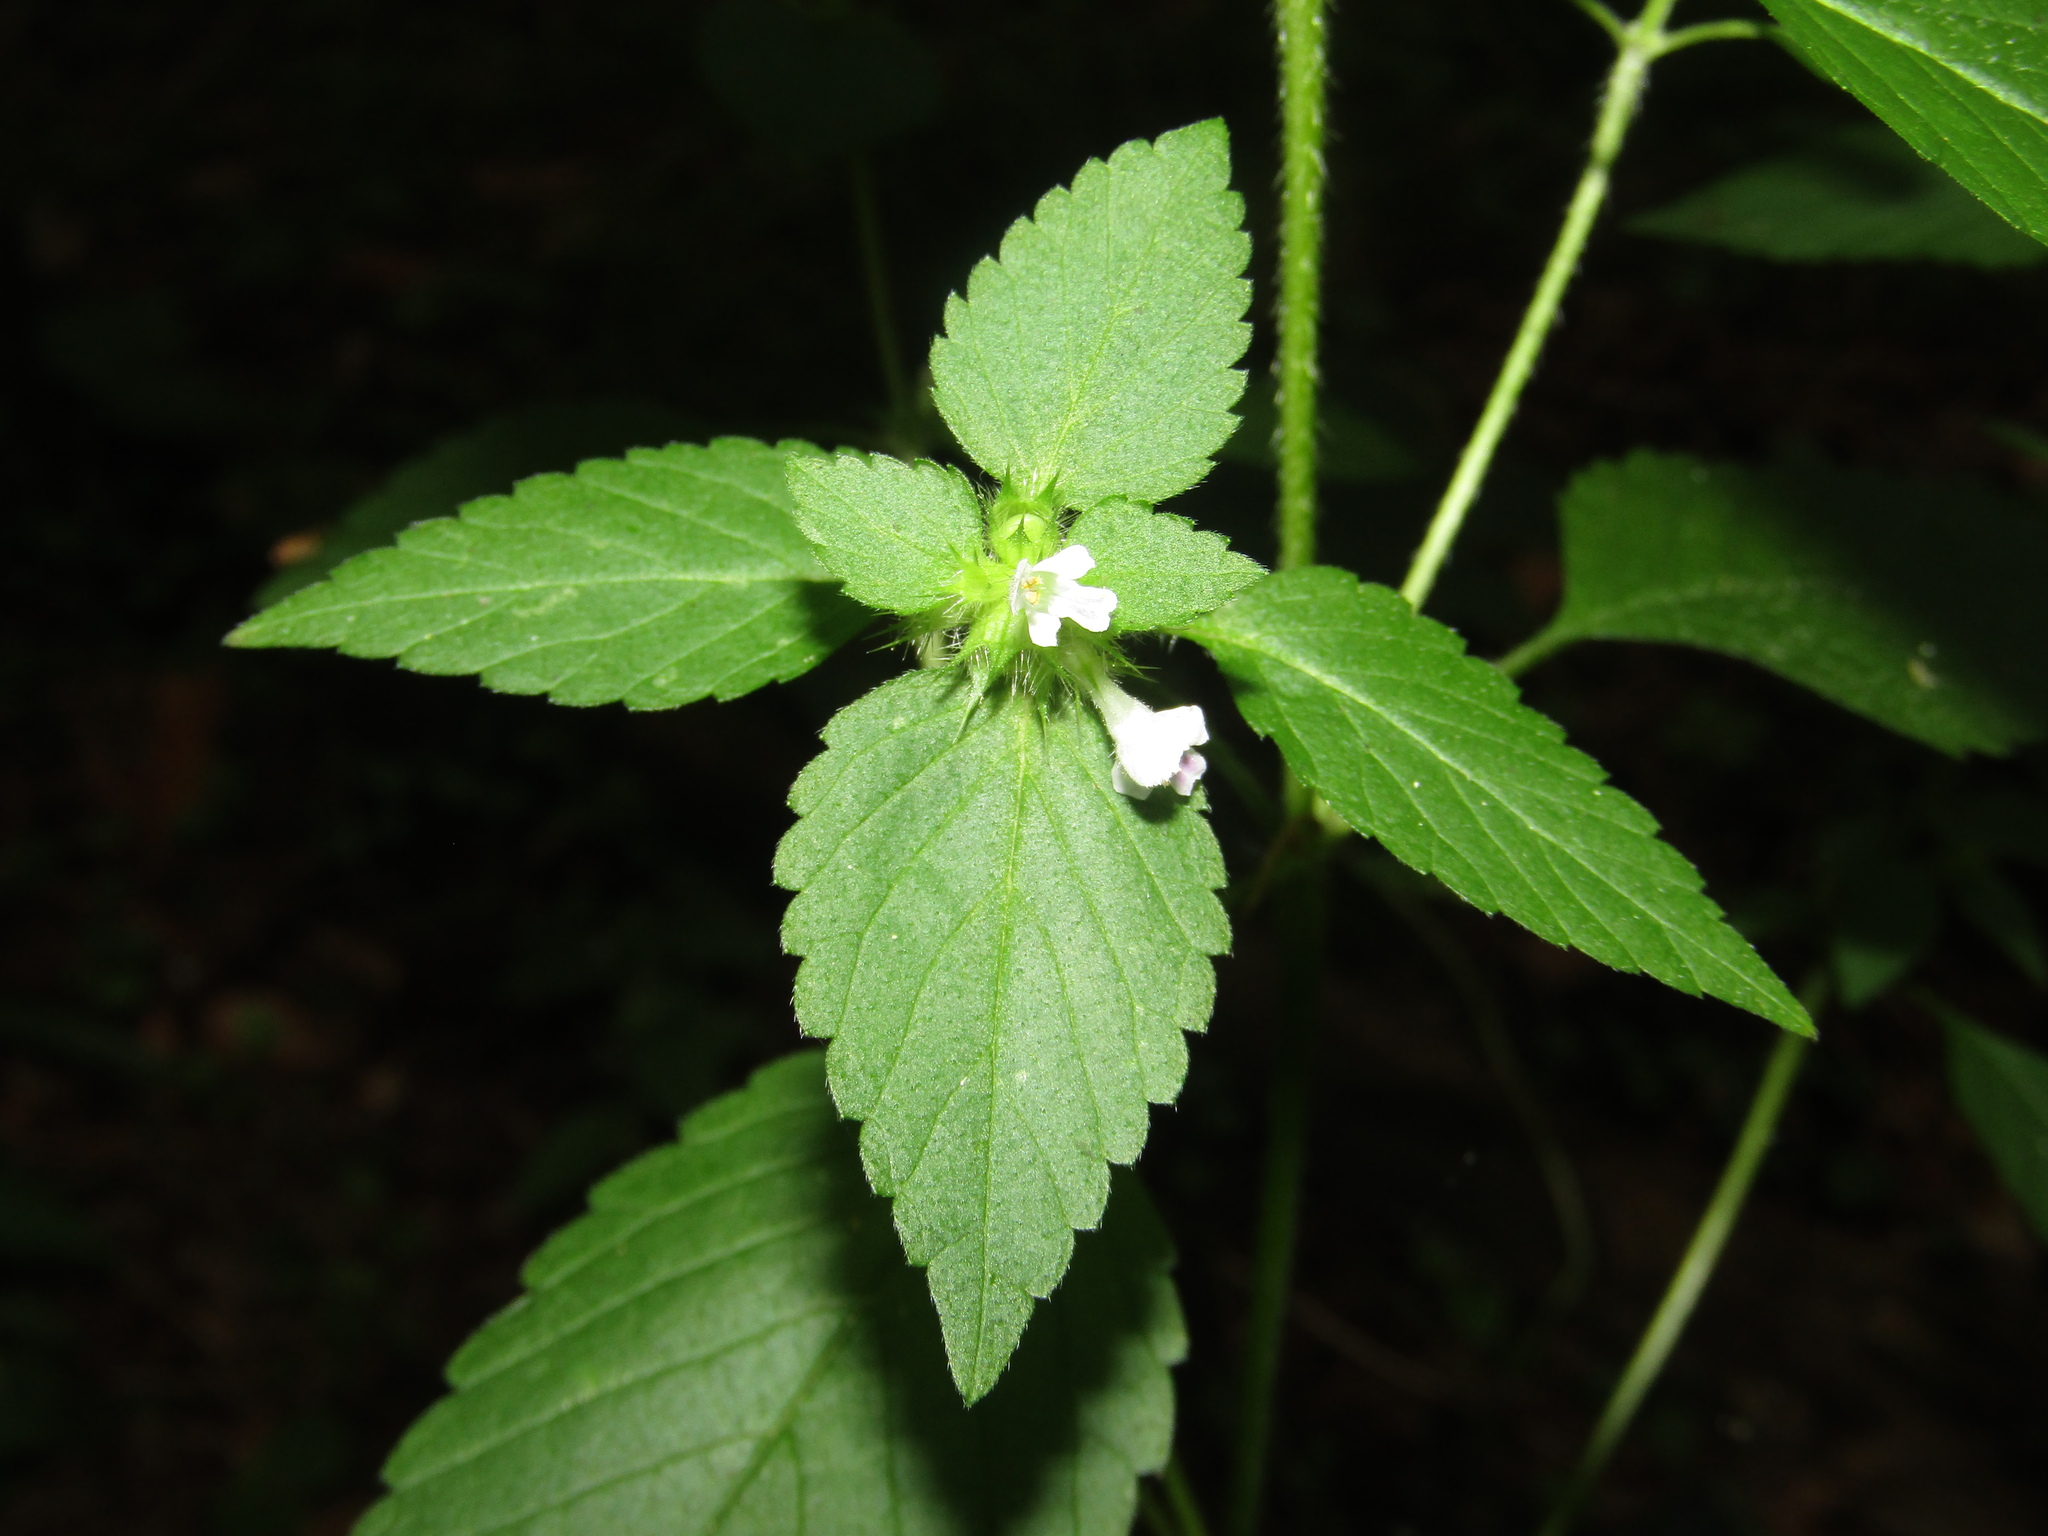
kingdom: Plantae
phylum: Tracheophyta
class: Magnoliopsida
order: Lamiales
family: Lamiaceae
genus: Galeopsis
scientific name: Galeopsis bifida
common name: Bifid hemp-nettle
